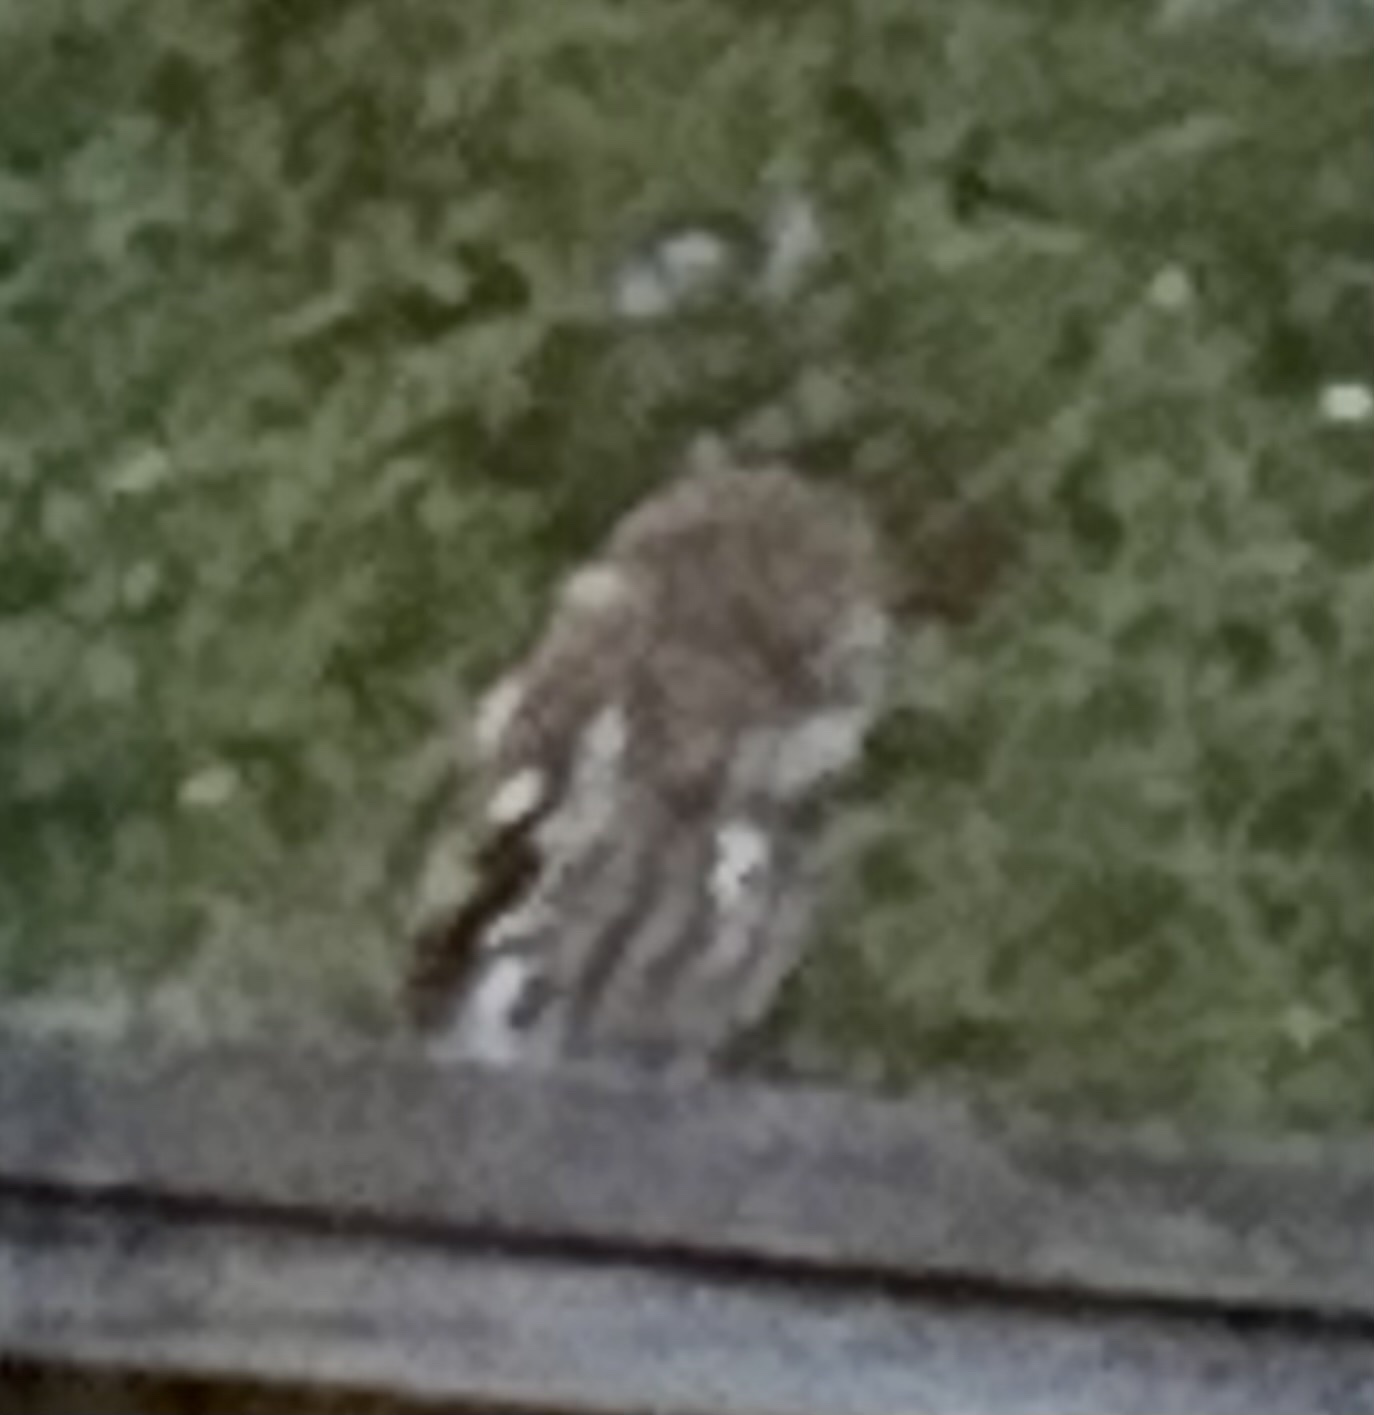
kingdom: Animalia
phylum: Chordata
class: Aves
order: Strigiformes
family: Strigidae
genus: Megascops
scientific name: Megascops asio
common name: Eastern screech-owl
